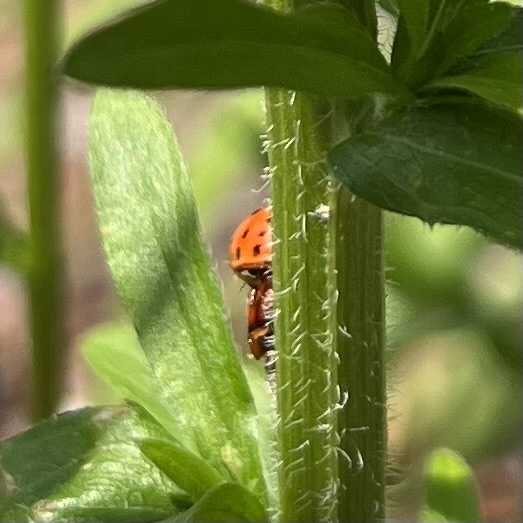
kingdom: Animalia
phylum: Arthropoda
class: Insecta
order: Coleoptera
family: Coccinellidae
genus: Harmonia
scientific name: Harmonia axyridis
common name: Harlequin ladybird
